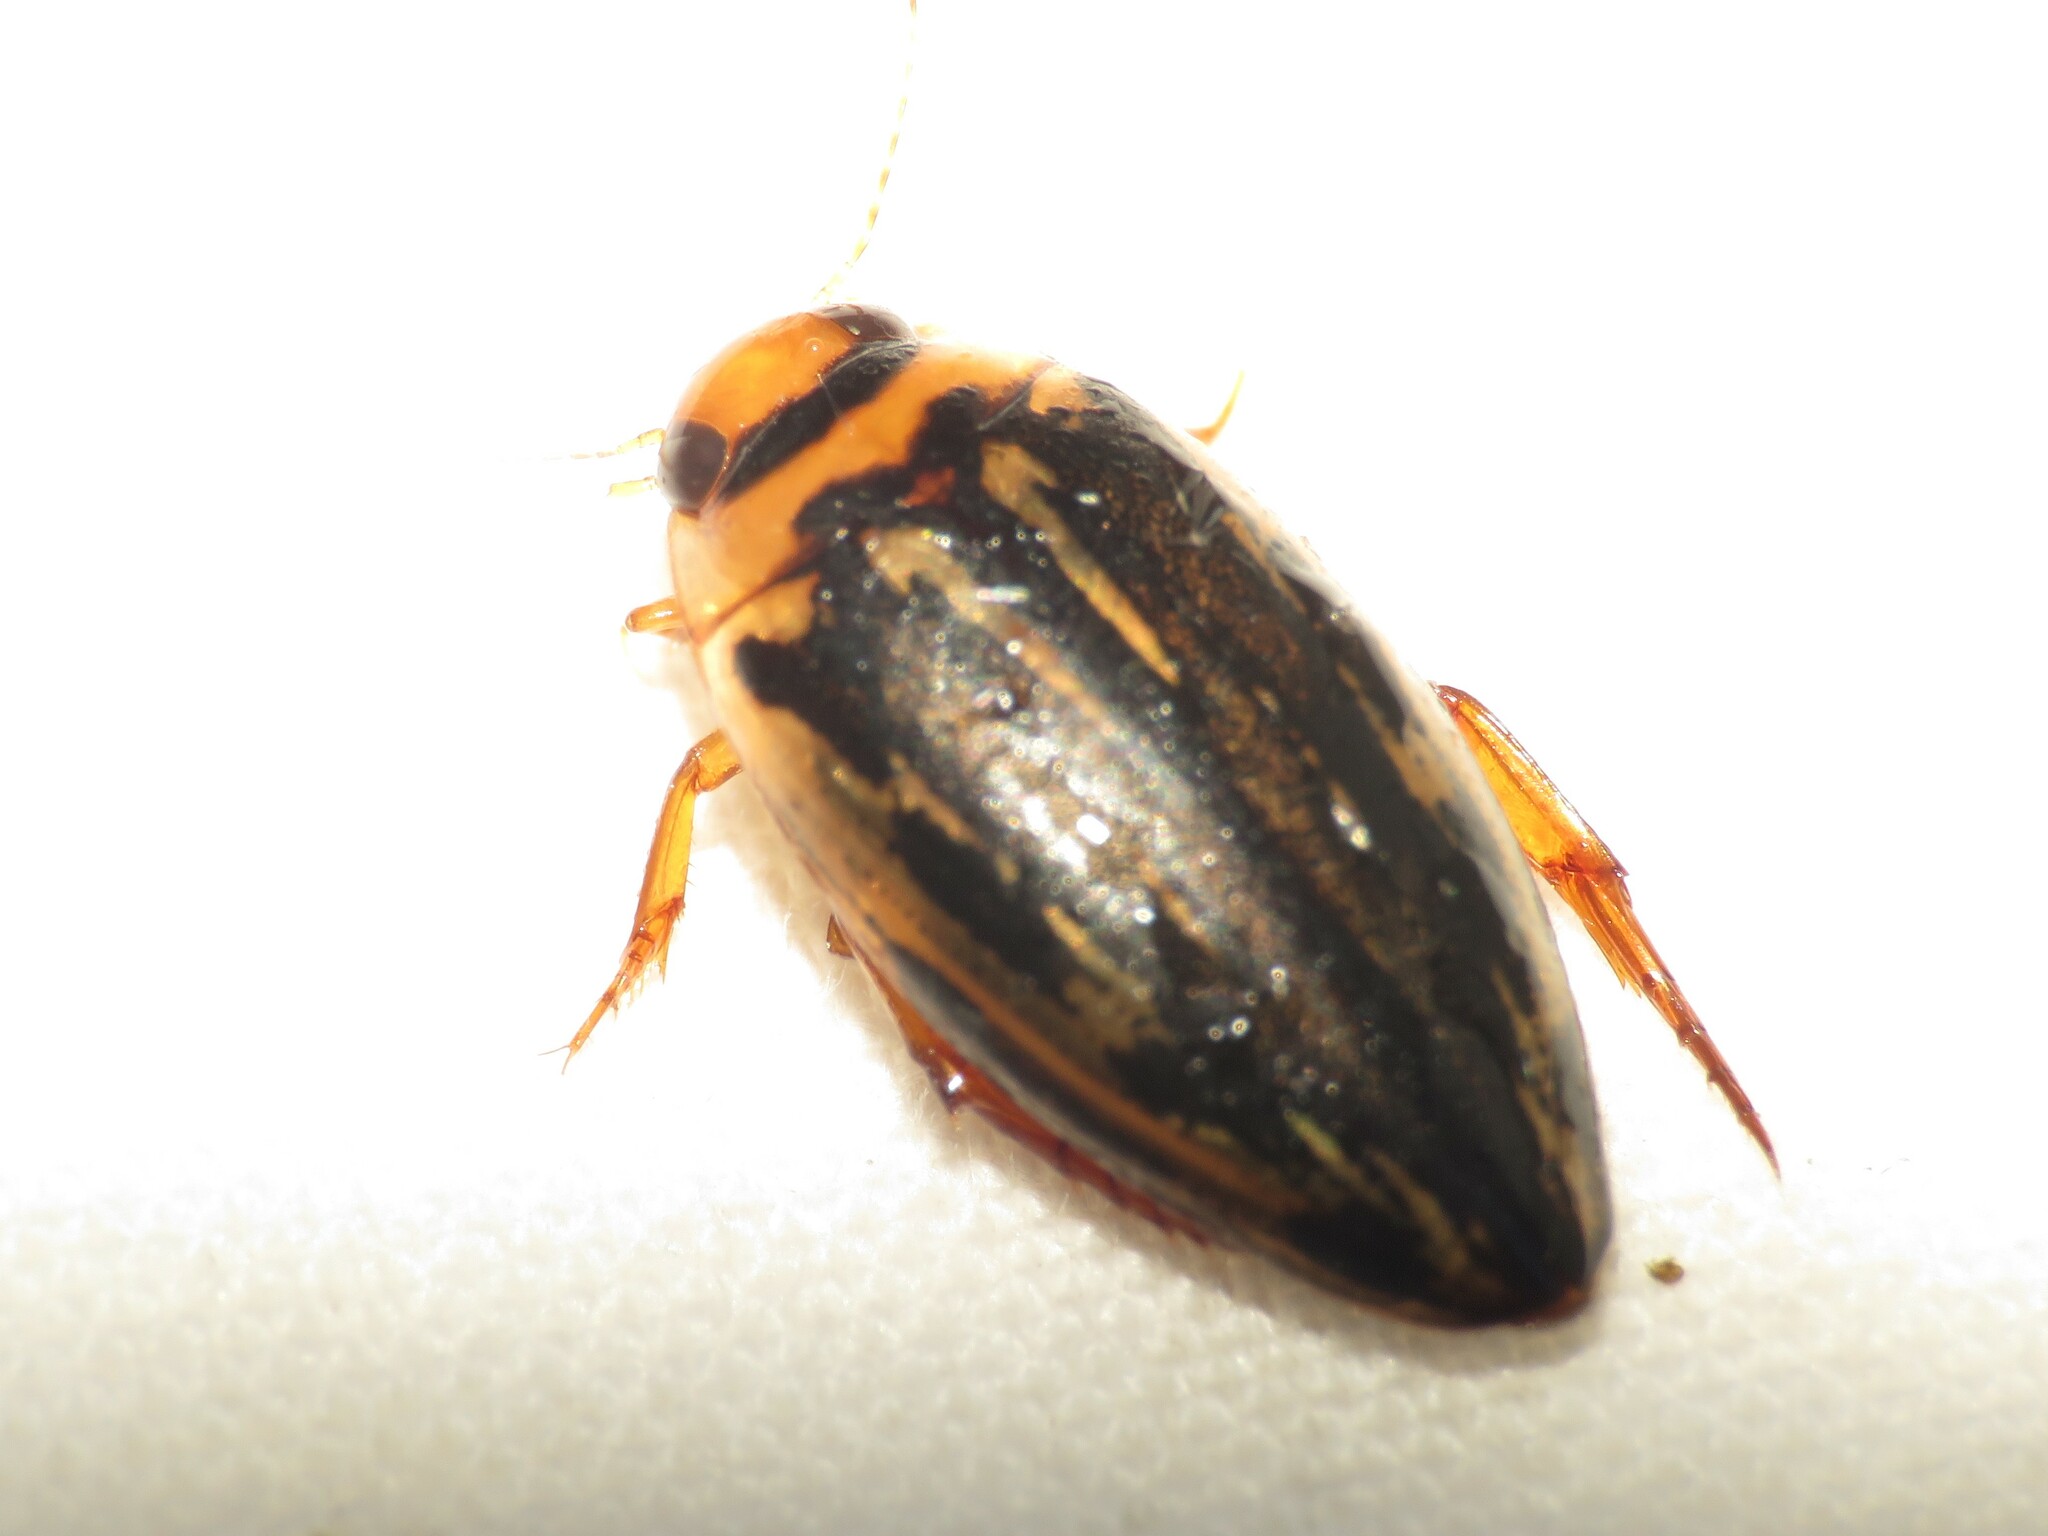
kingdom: Animalia
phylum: Arthropoda
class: Insecta
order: Coleoptera
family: Dytiscidae
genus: Coptotomus
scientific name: Coptotomus longulus
